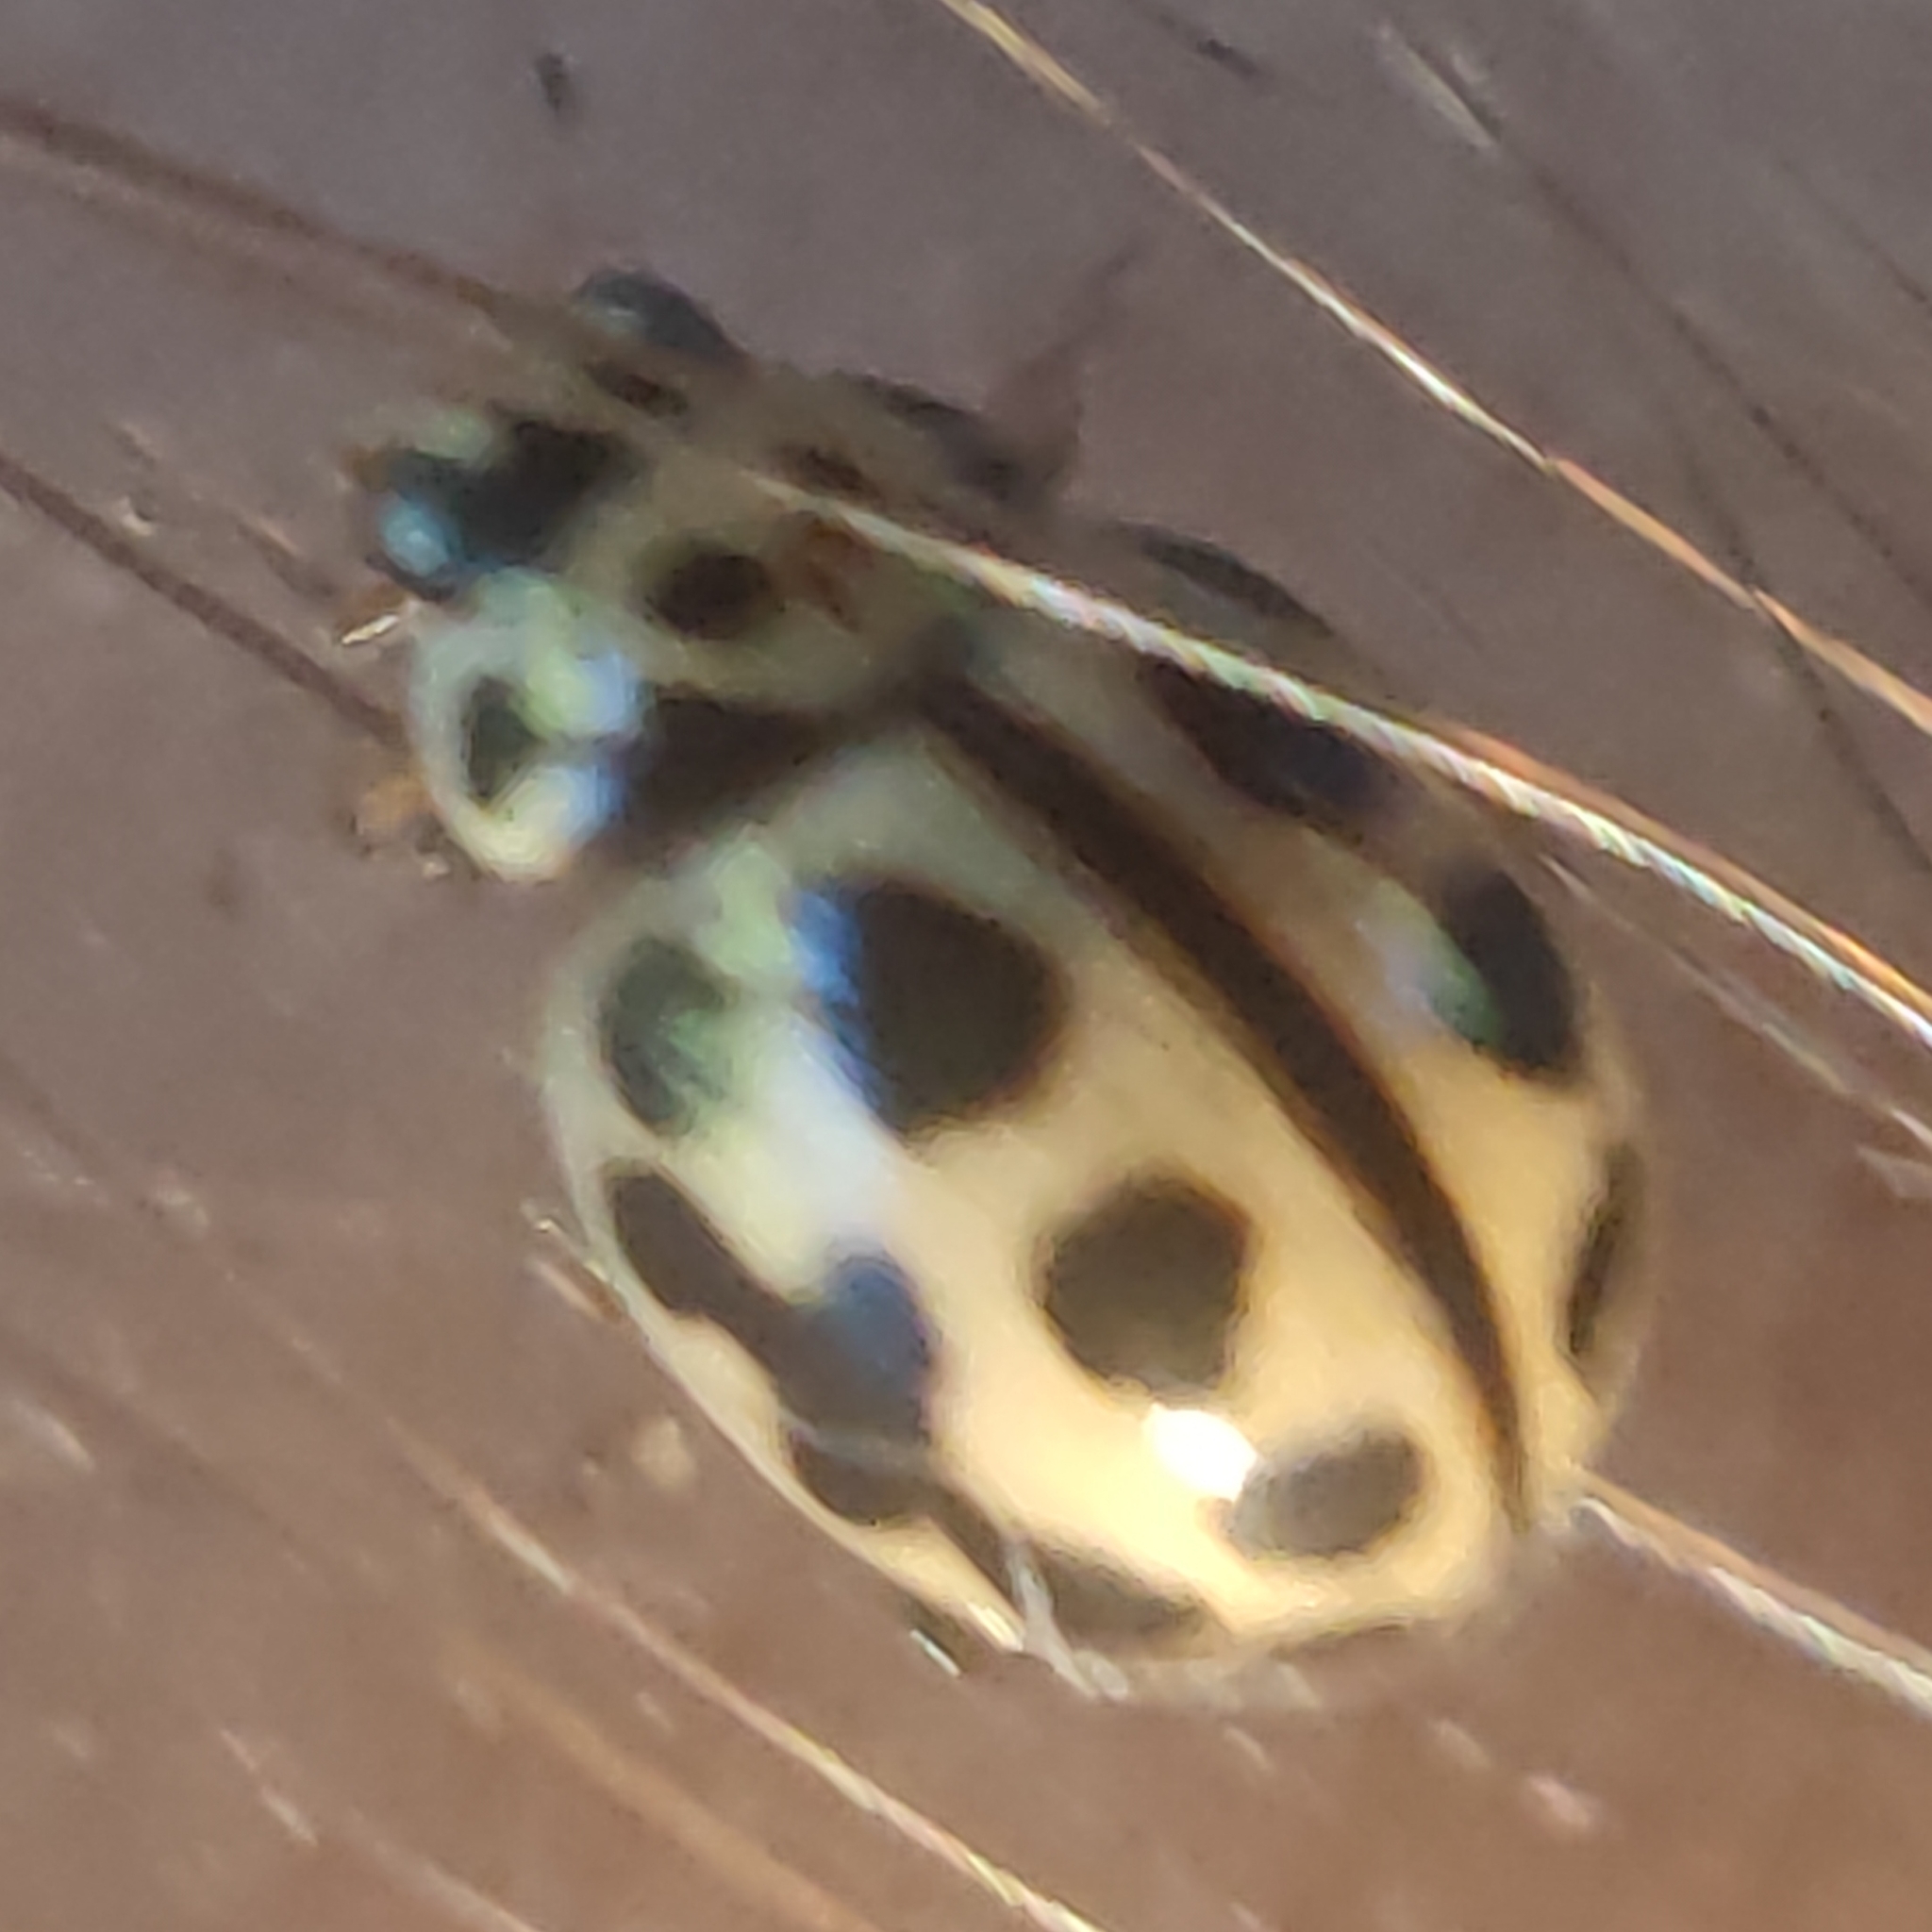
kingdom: Animalia
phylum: Arthropoda
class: Insecta
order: Coleoptera
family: Coccinellidae
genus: Tytthaspis
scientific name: Tytthaspis sedecimpunctata
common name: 16-spot ladybird
